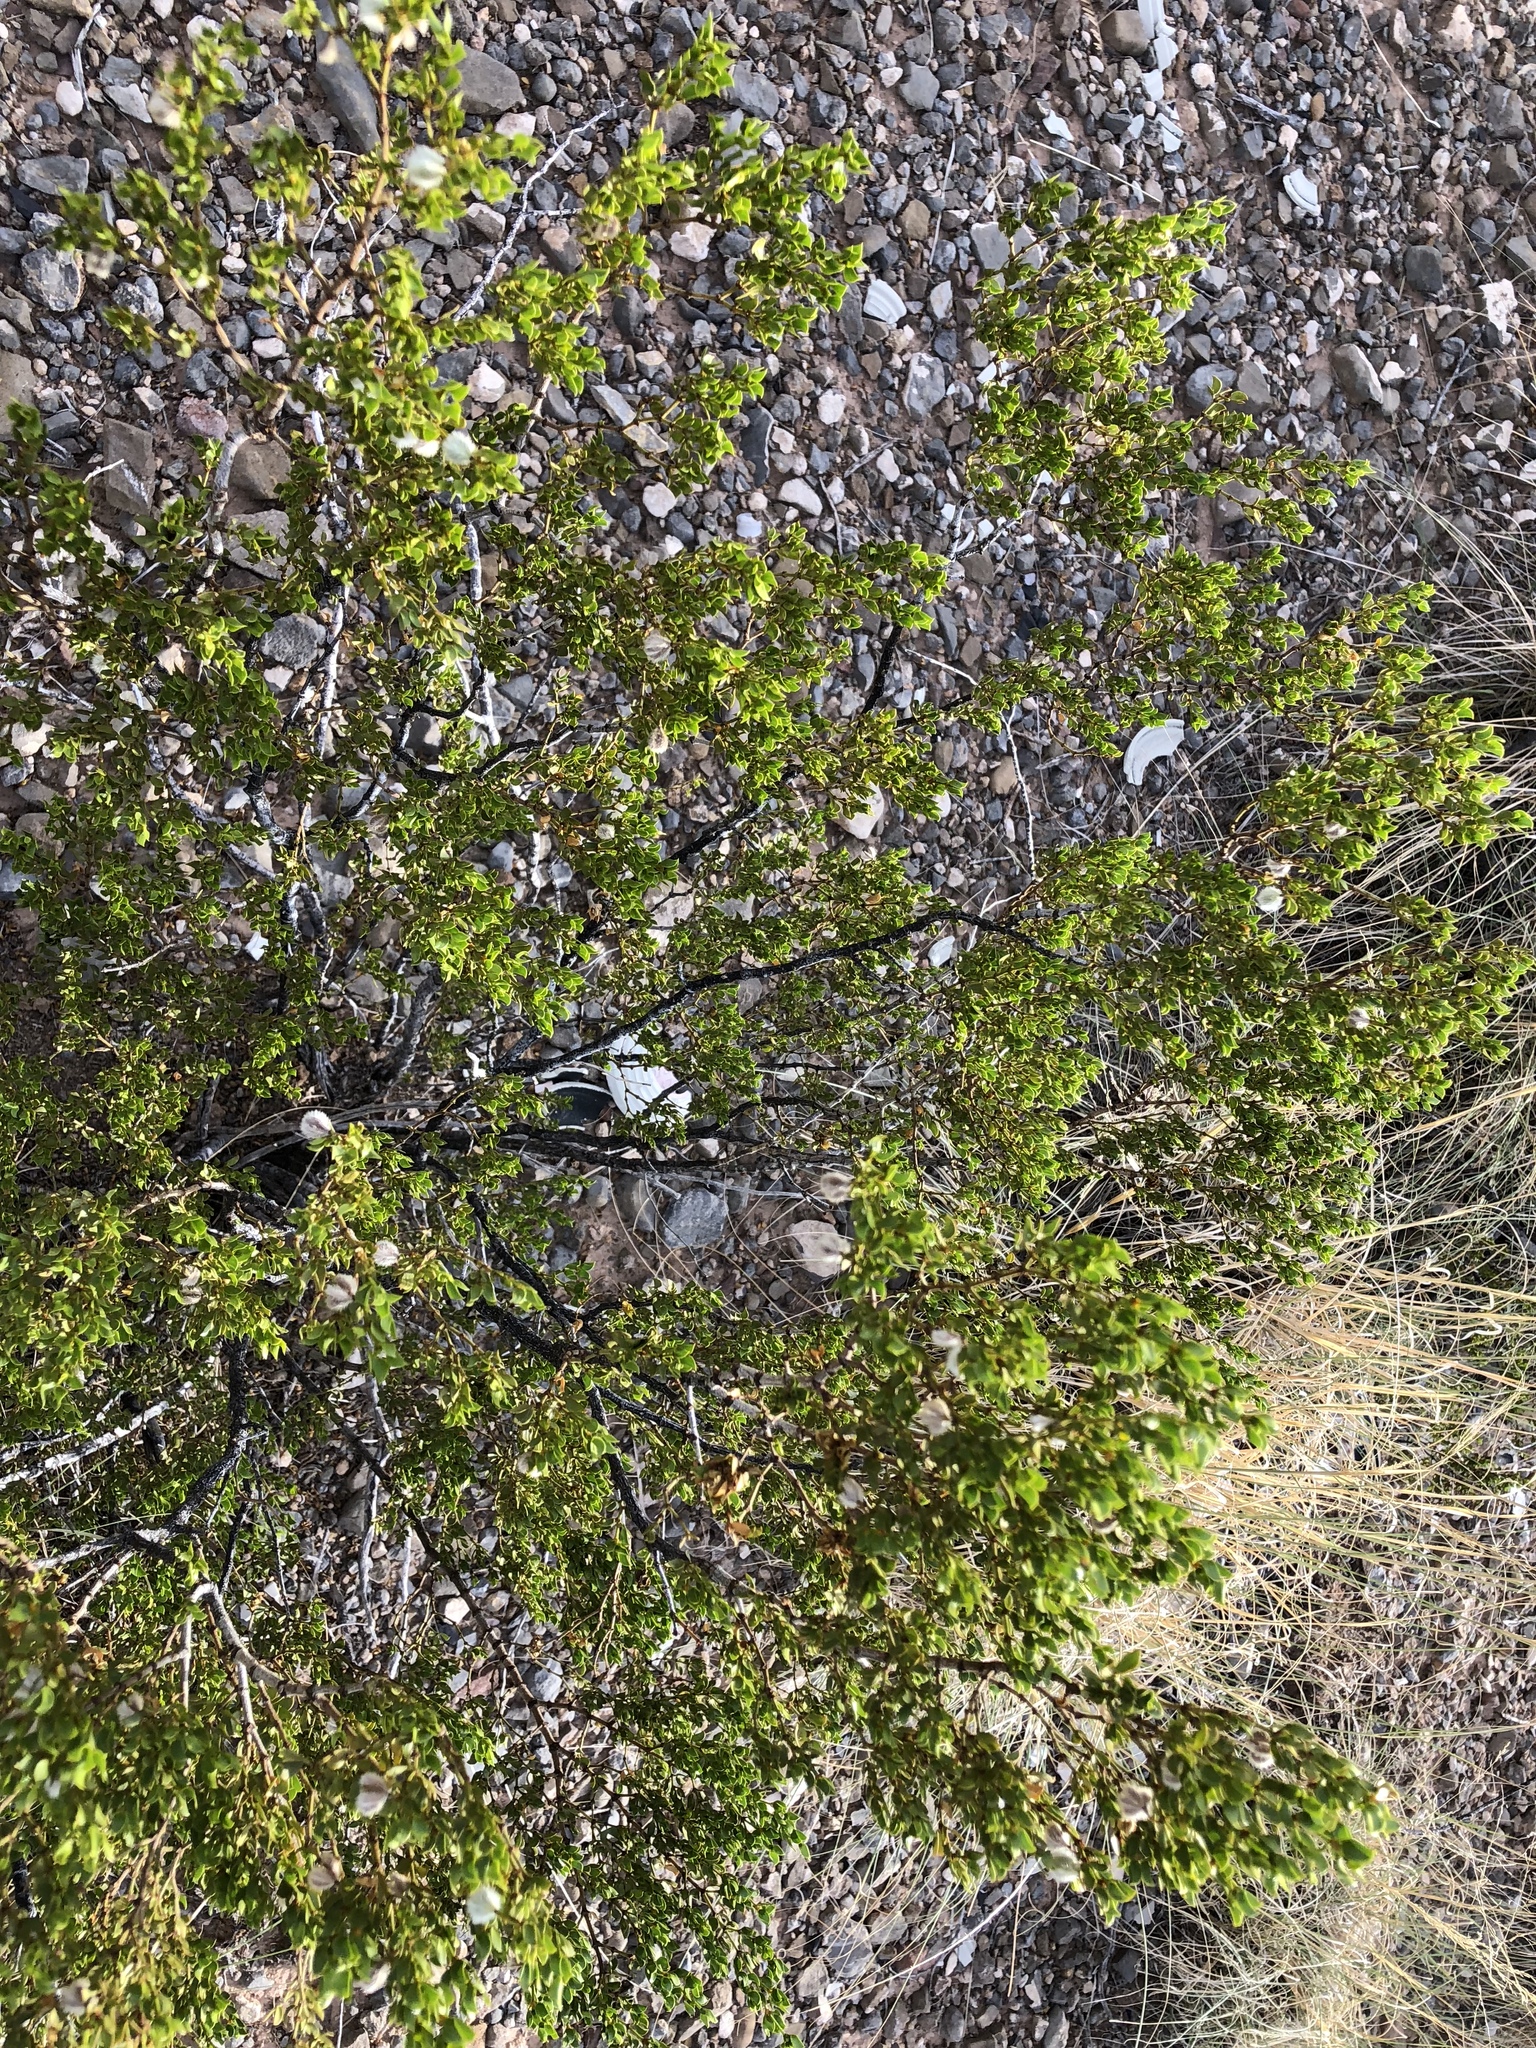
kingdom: Plantae
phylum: Tracheophyta
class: Magnoliopsida
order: Zygophyllales
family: Zygophyllaceae
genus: Larrea
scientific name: Larrea tridentata
